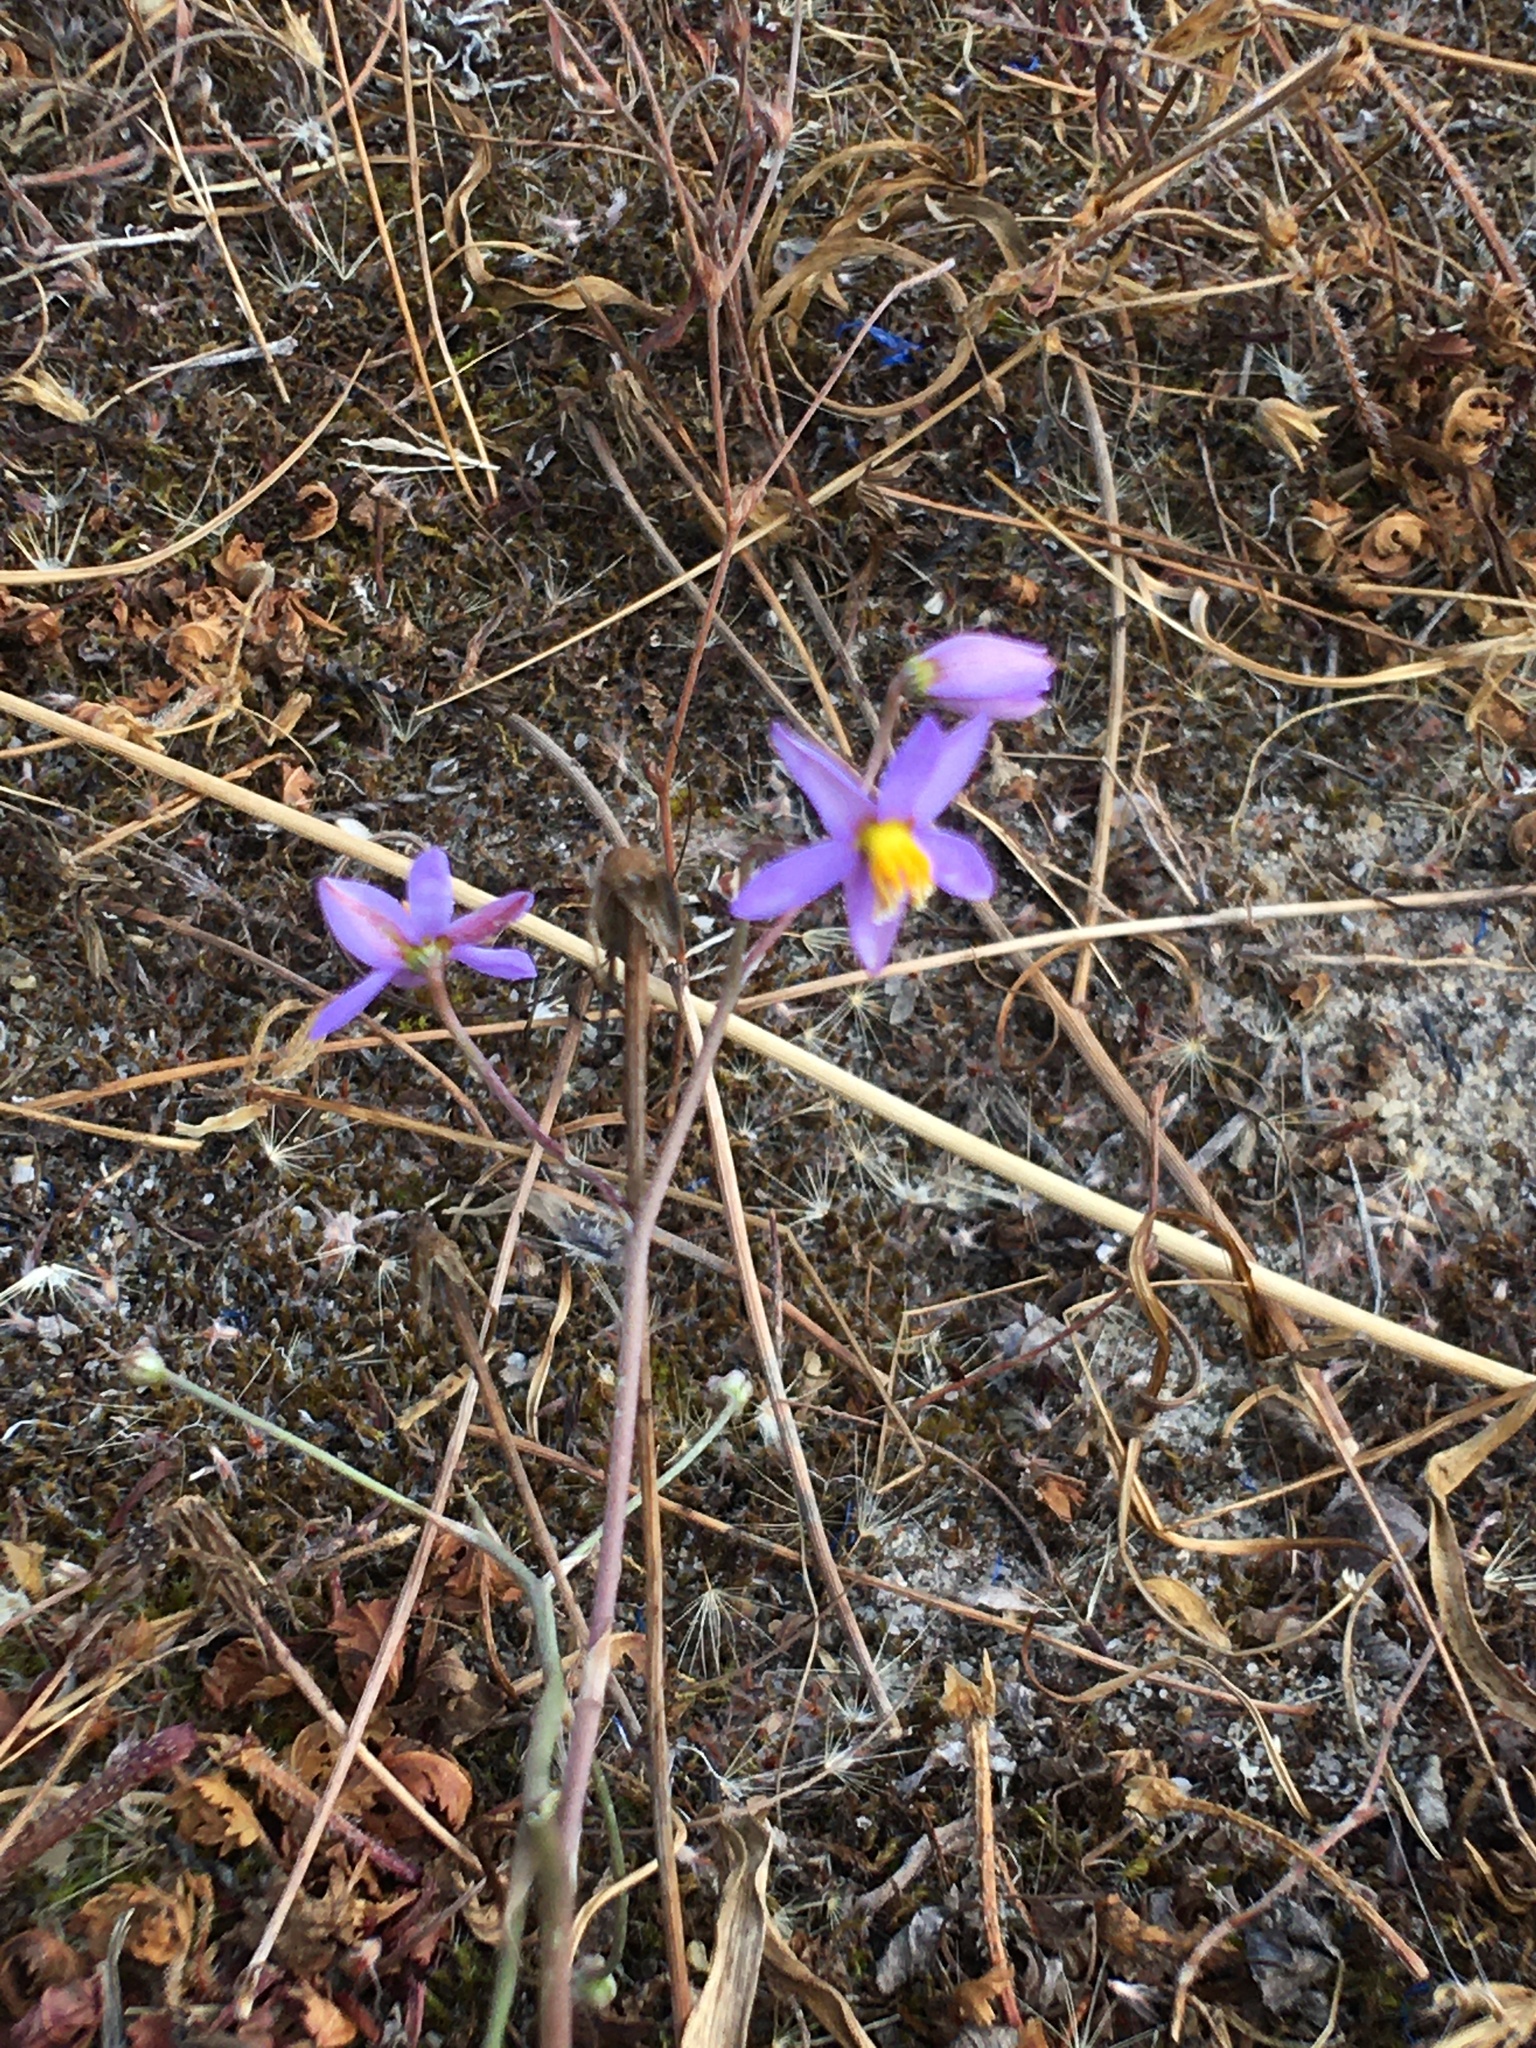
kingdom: Plantae
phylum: Tracheophyta
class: Liliopsida
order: Asparagales
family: Tecophilaeaceae
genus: Cyanella
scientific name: Cyanella hyacinthoides
